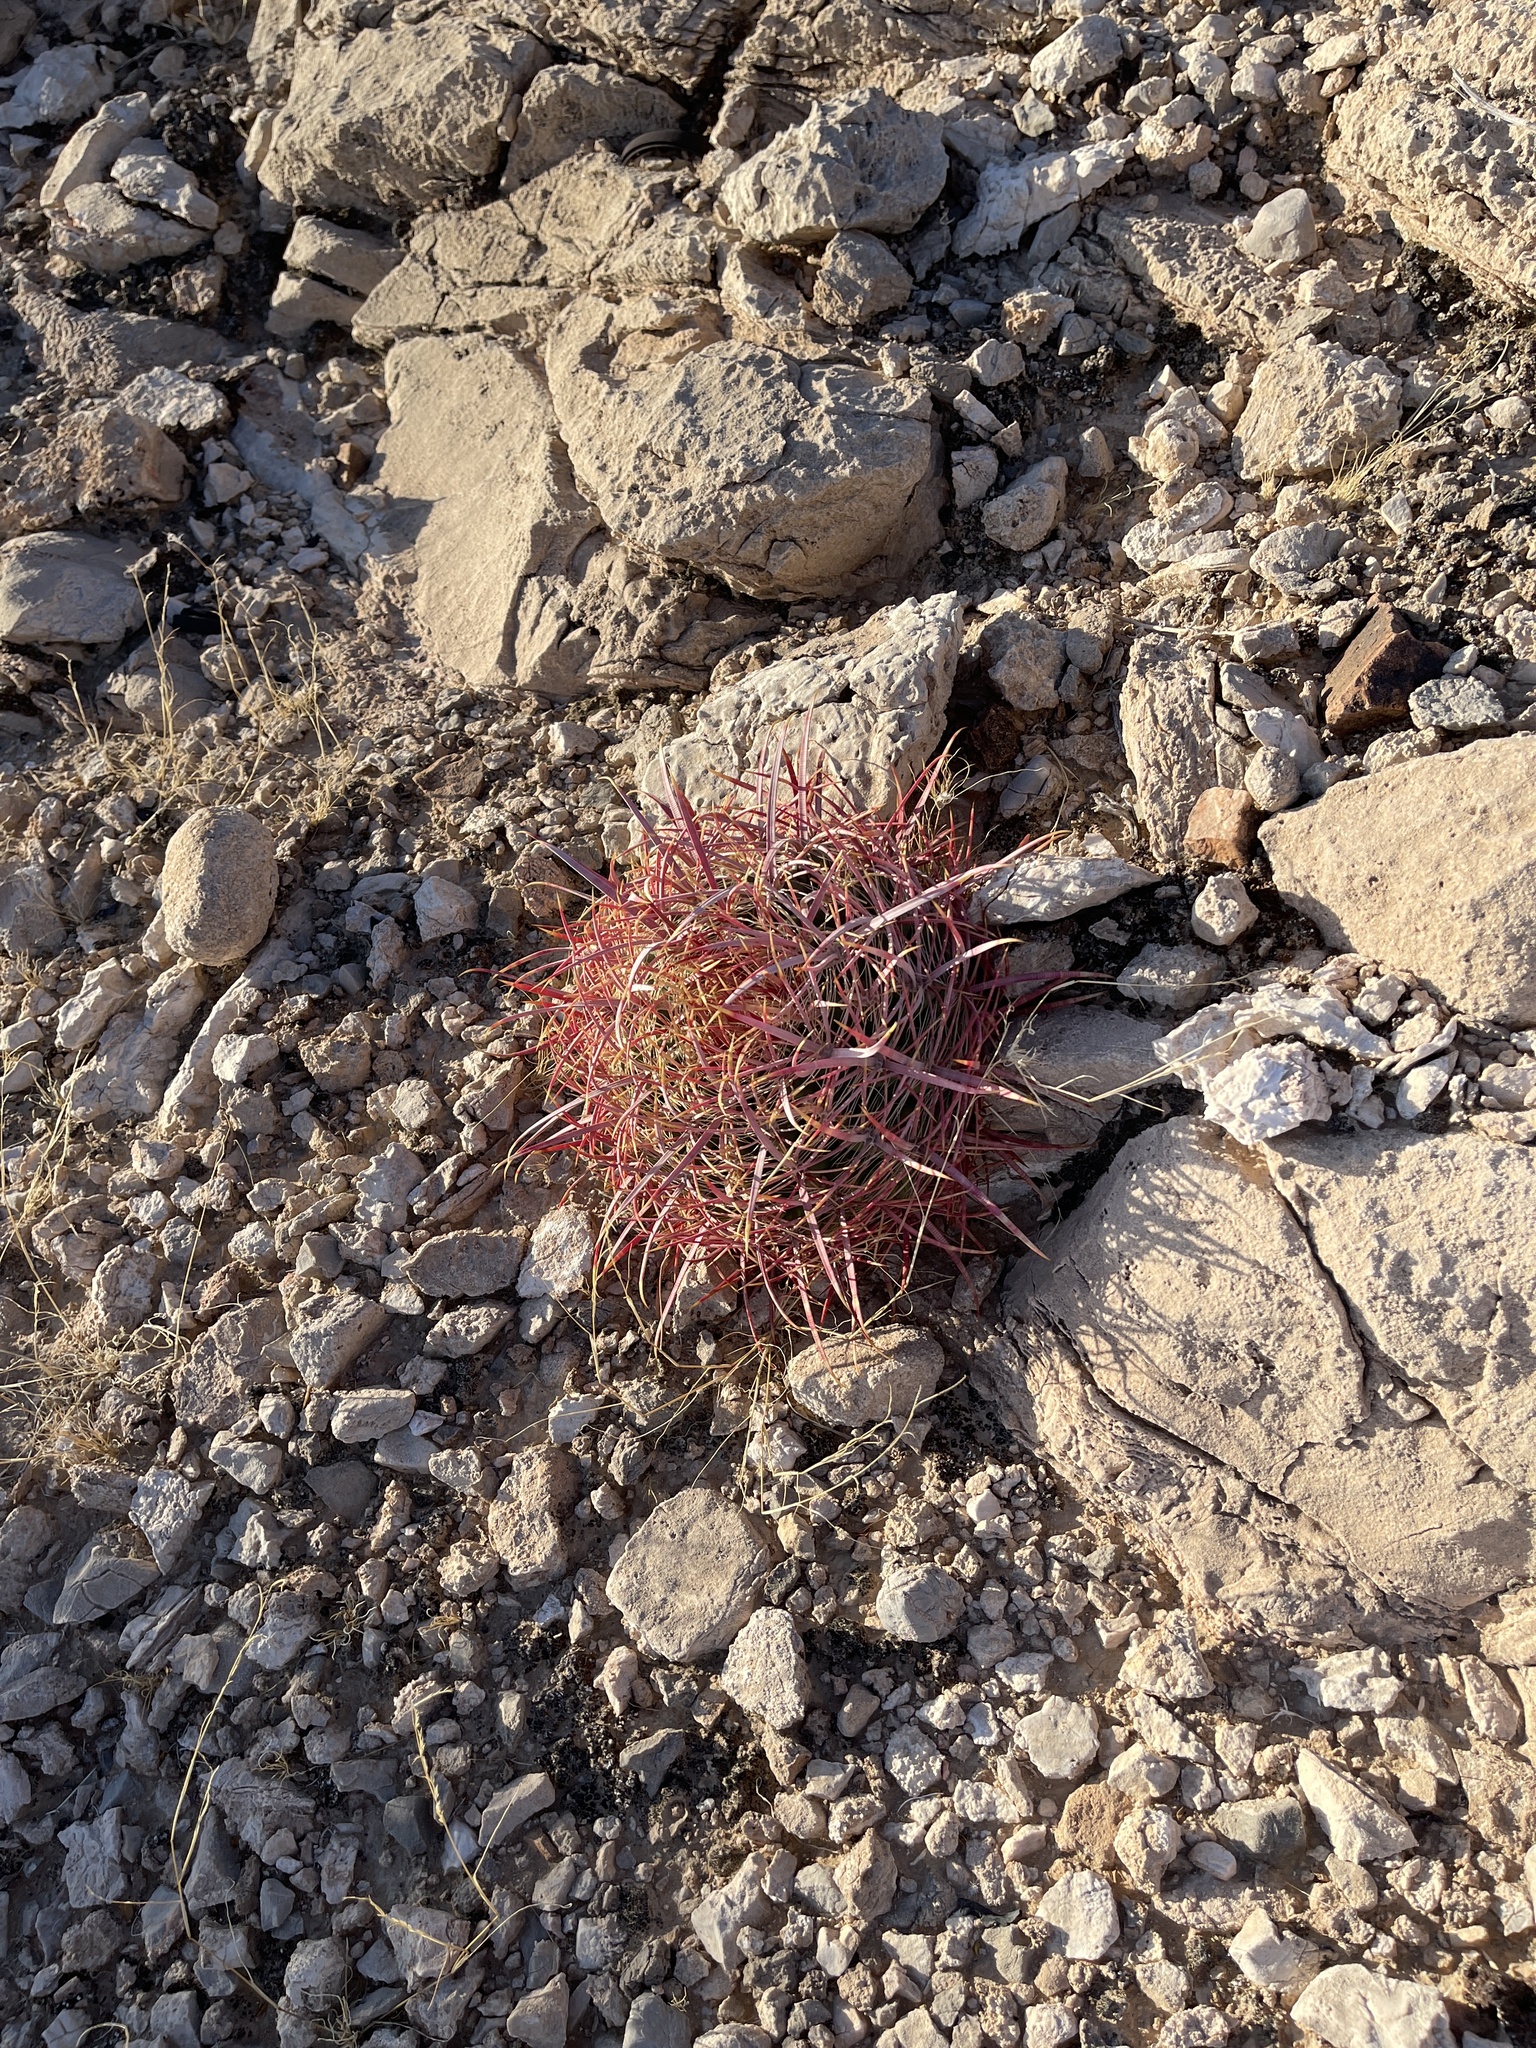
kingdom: Plantae
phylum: Tracheophyta
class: Magnoliopsida
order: Caryophyllales
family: Cactaceae
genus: Ferocactus
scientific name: Ferocactus cylindraceus
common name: California barrel cactus
